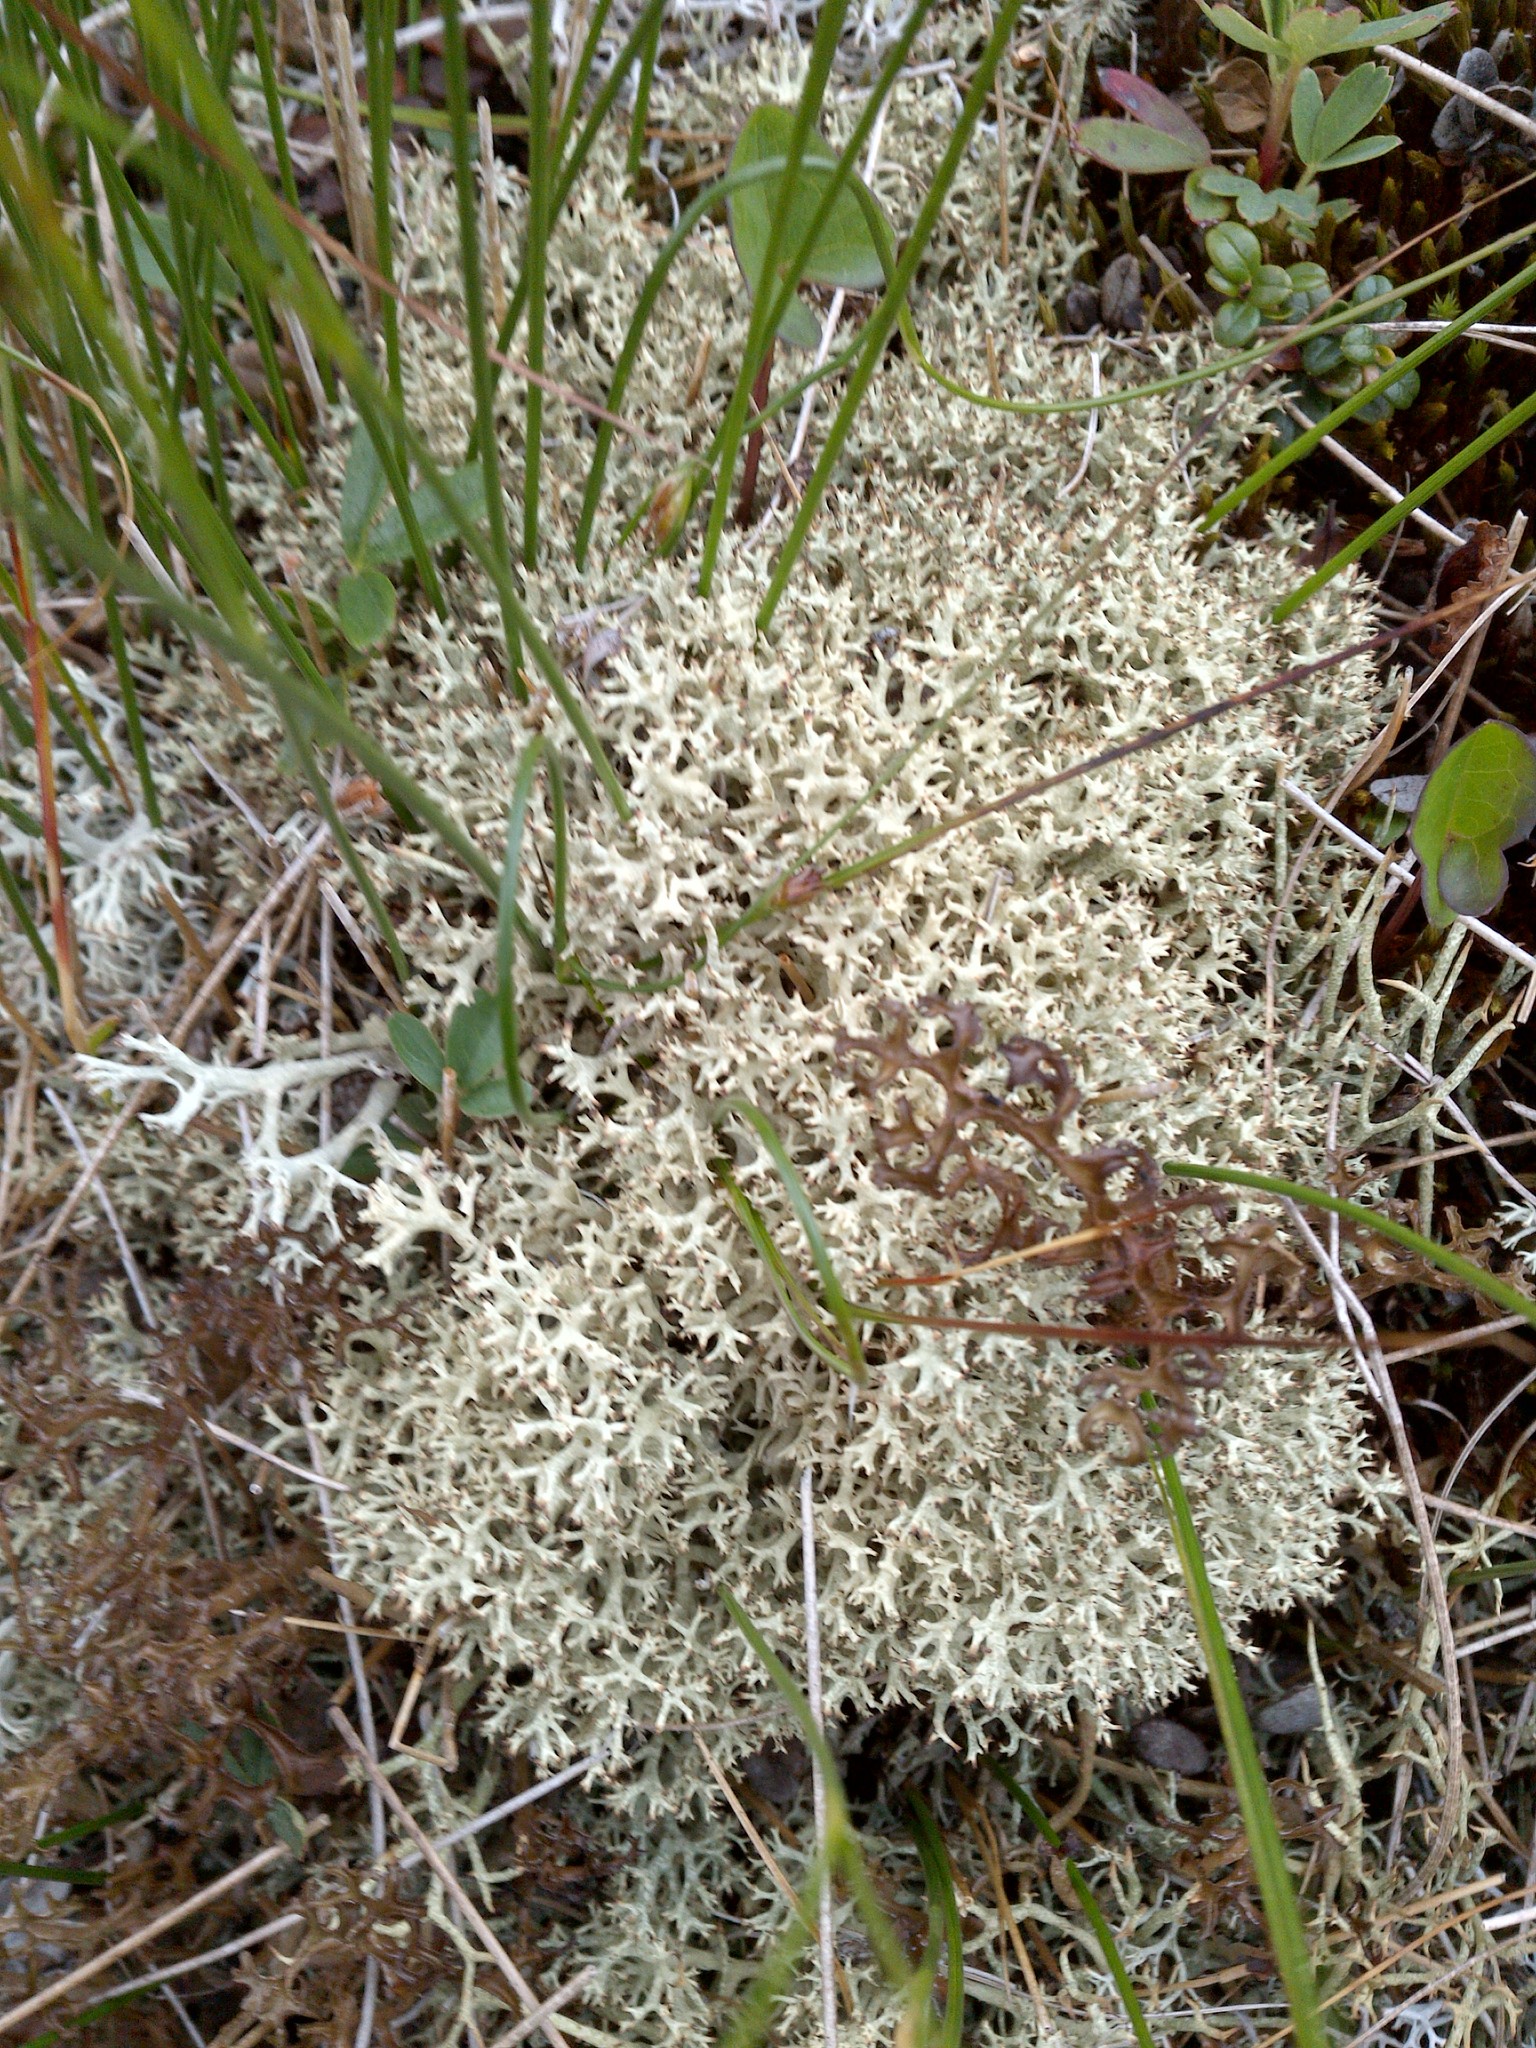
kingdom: Fungi
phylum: Ascomycota
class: Lecanoromycetes
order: Lecanorales
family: Cladoniaceae
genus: Cladonia
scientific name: Cladonia uncialis
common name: Thorn lichen
